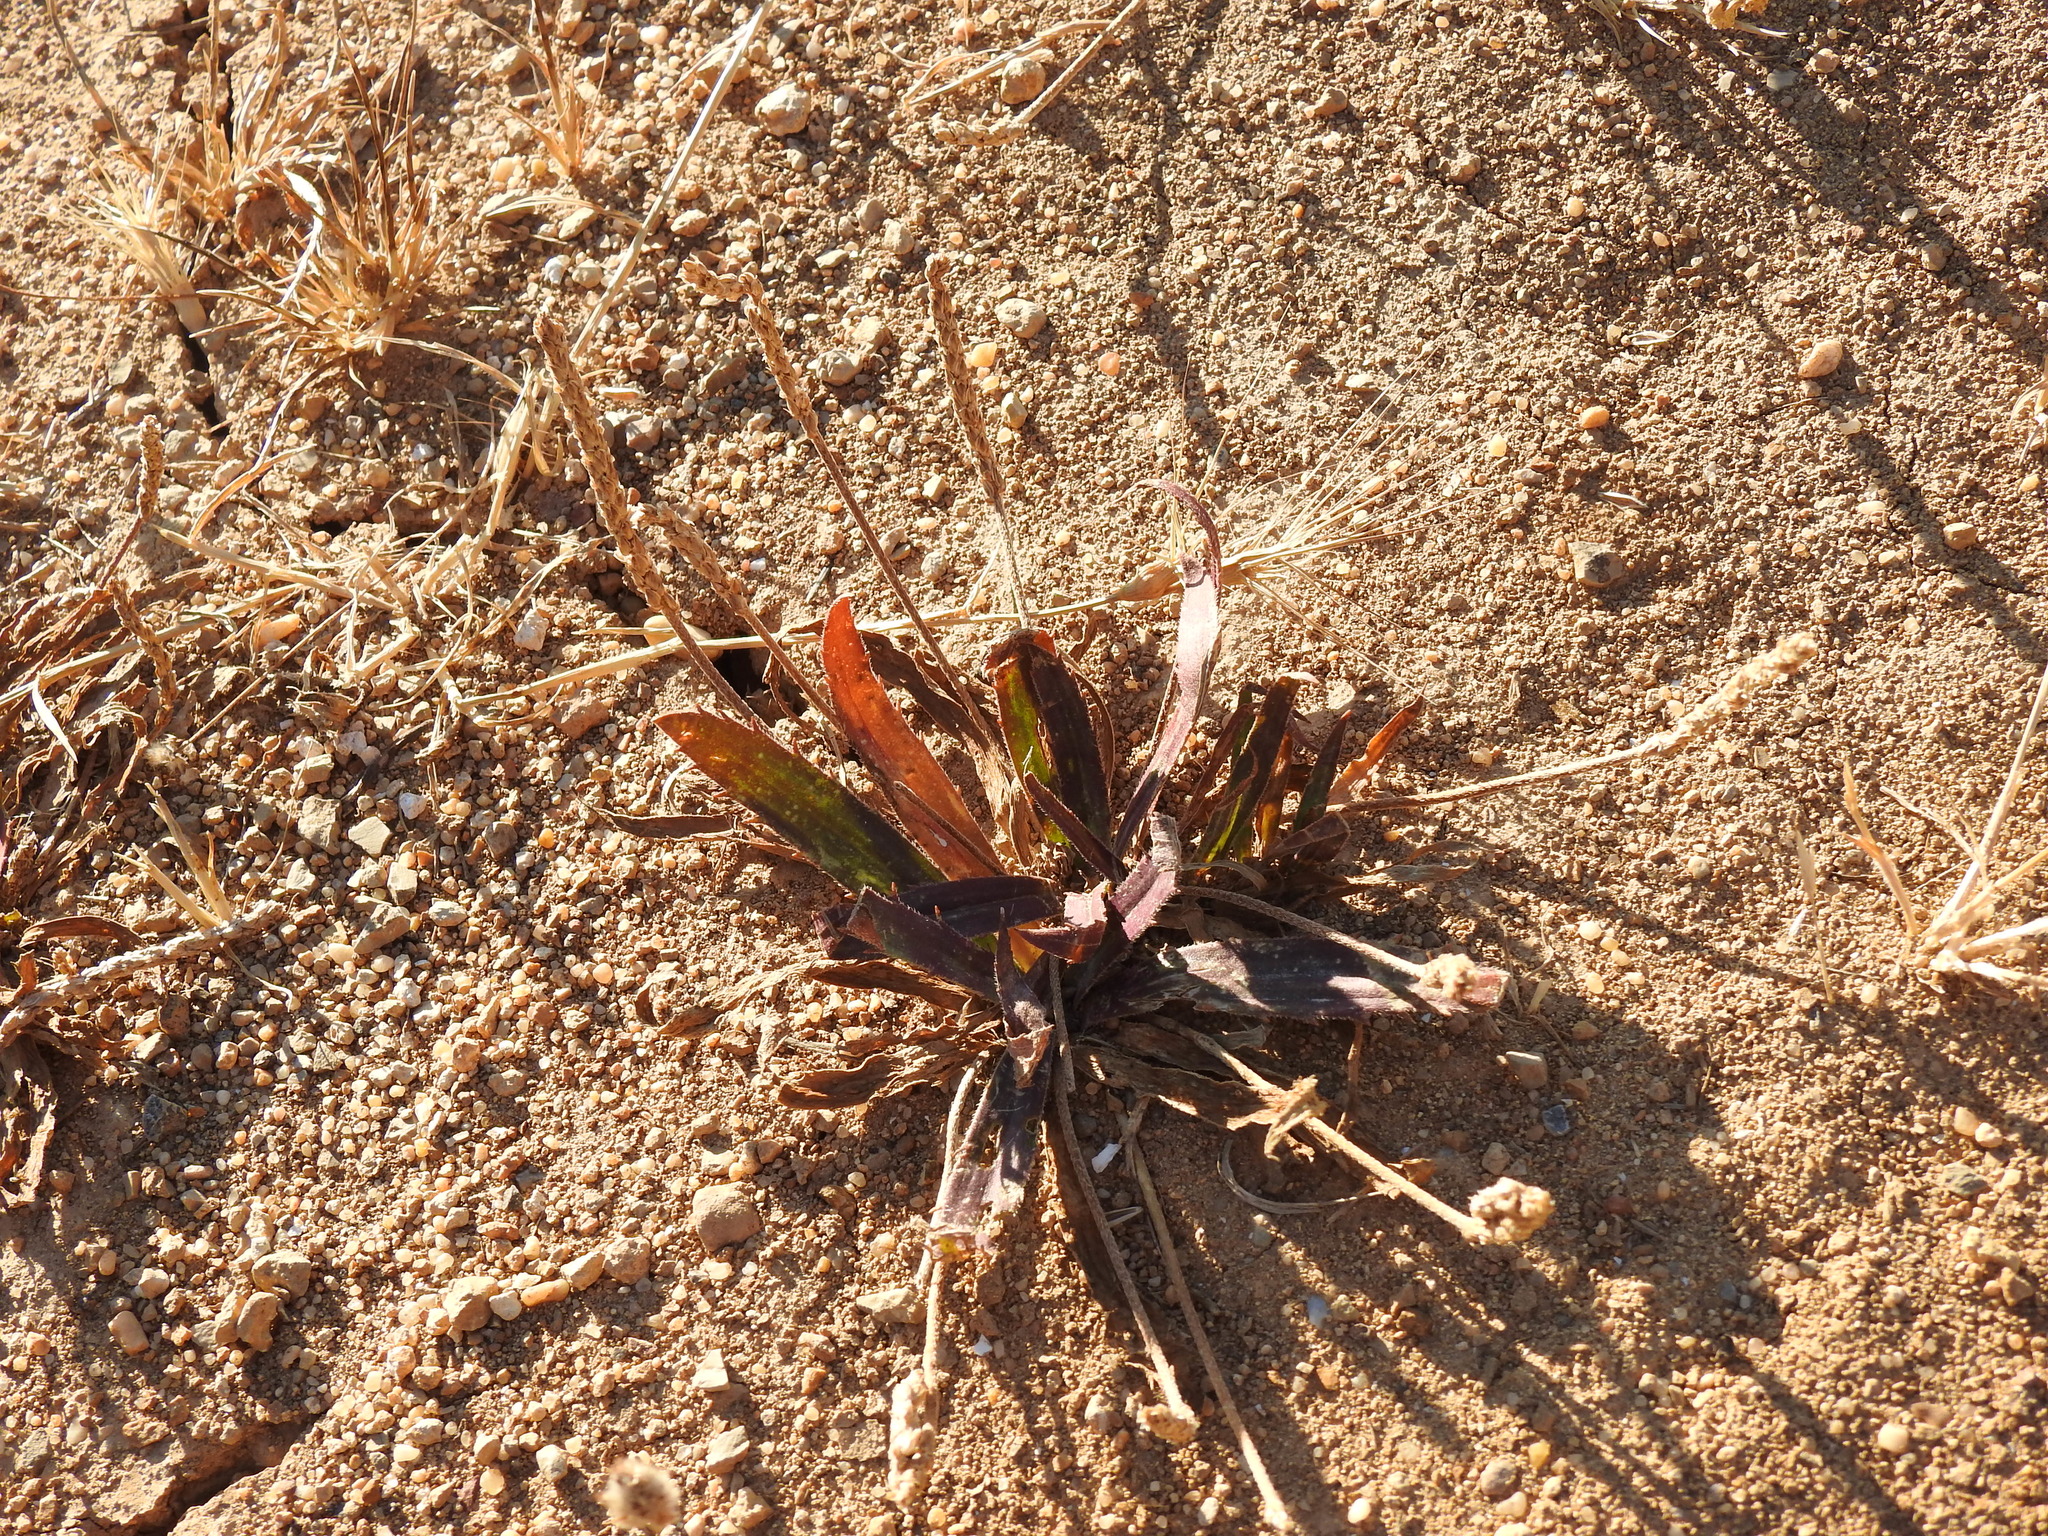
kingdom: Plantae
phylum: Tracheophyta
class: Magnoliopsida
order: Lamiales
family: Plantaginaceae
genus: Plantago
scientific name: Plantago serraria
